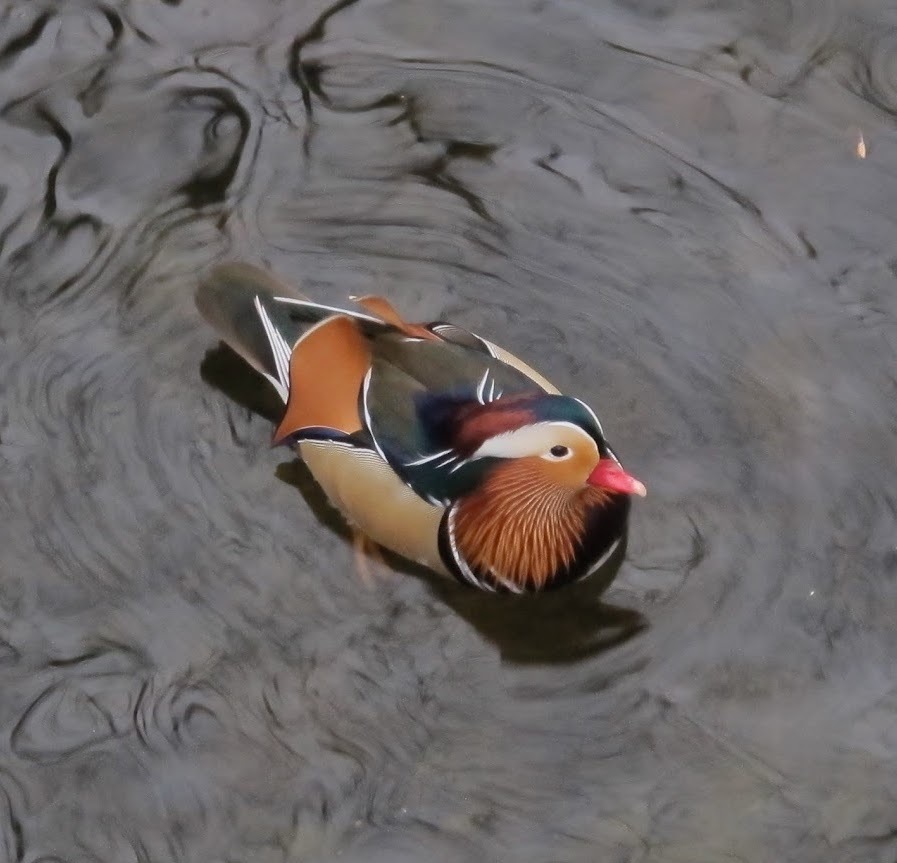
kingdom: Animalia
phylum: Chordata
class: Aves
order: Anseriformes
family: Anatidae
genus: Aix
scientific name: Aix galericulata
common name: Mandarin duck
